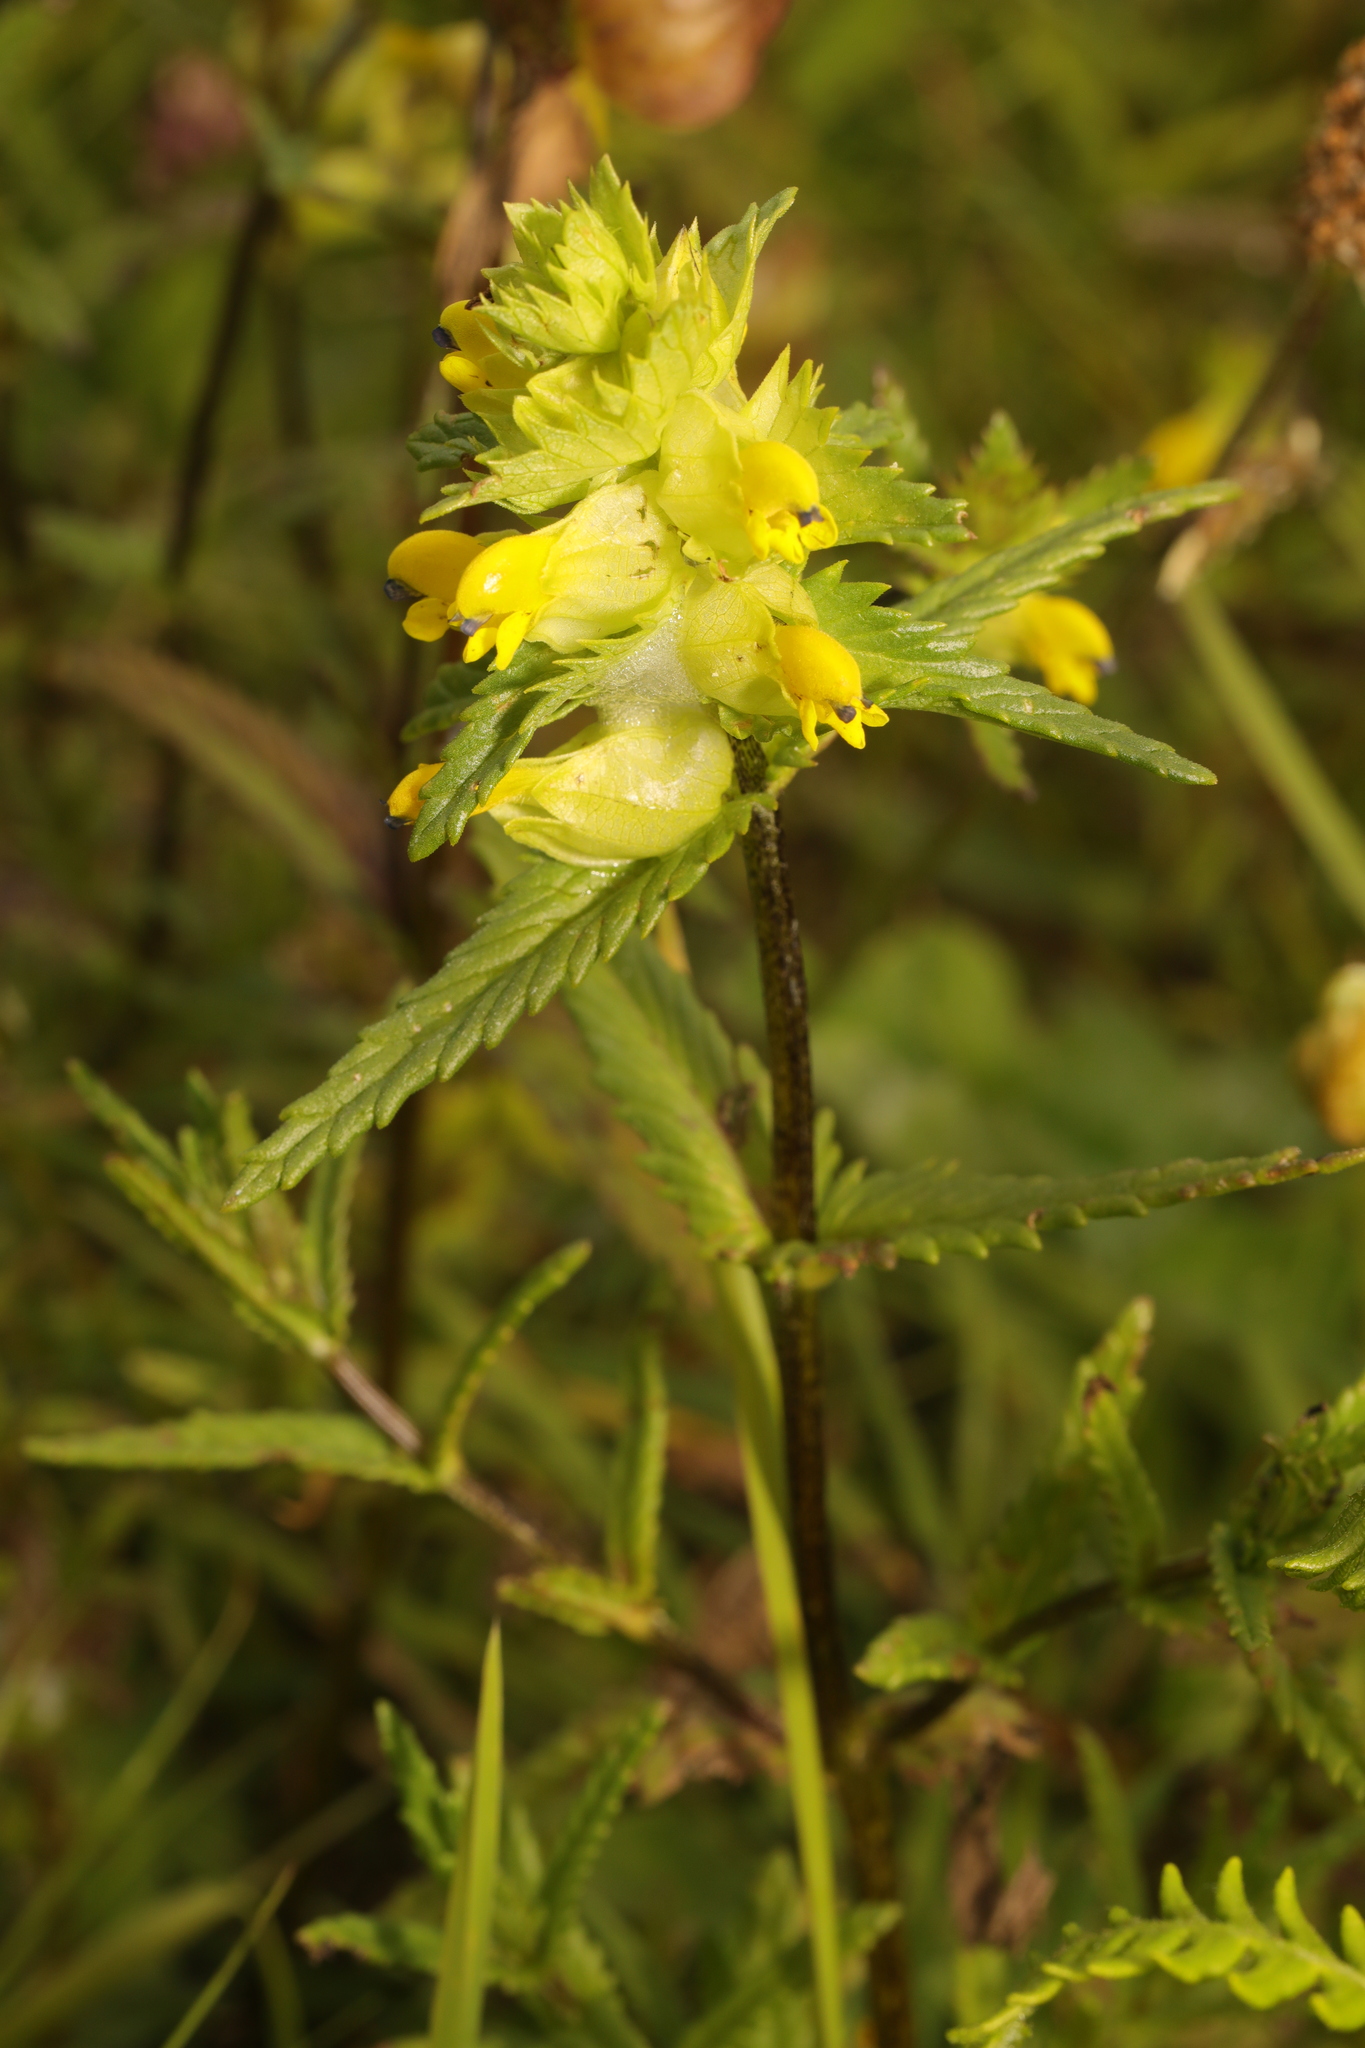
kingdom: Plantae
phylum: Tracheophyta
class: Magnoliopsida
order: Lamiales
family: Orobanchaceae
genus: Rhinanthus
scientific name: Rhinanthus minor
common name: Yellow-rattle
